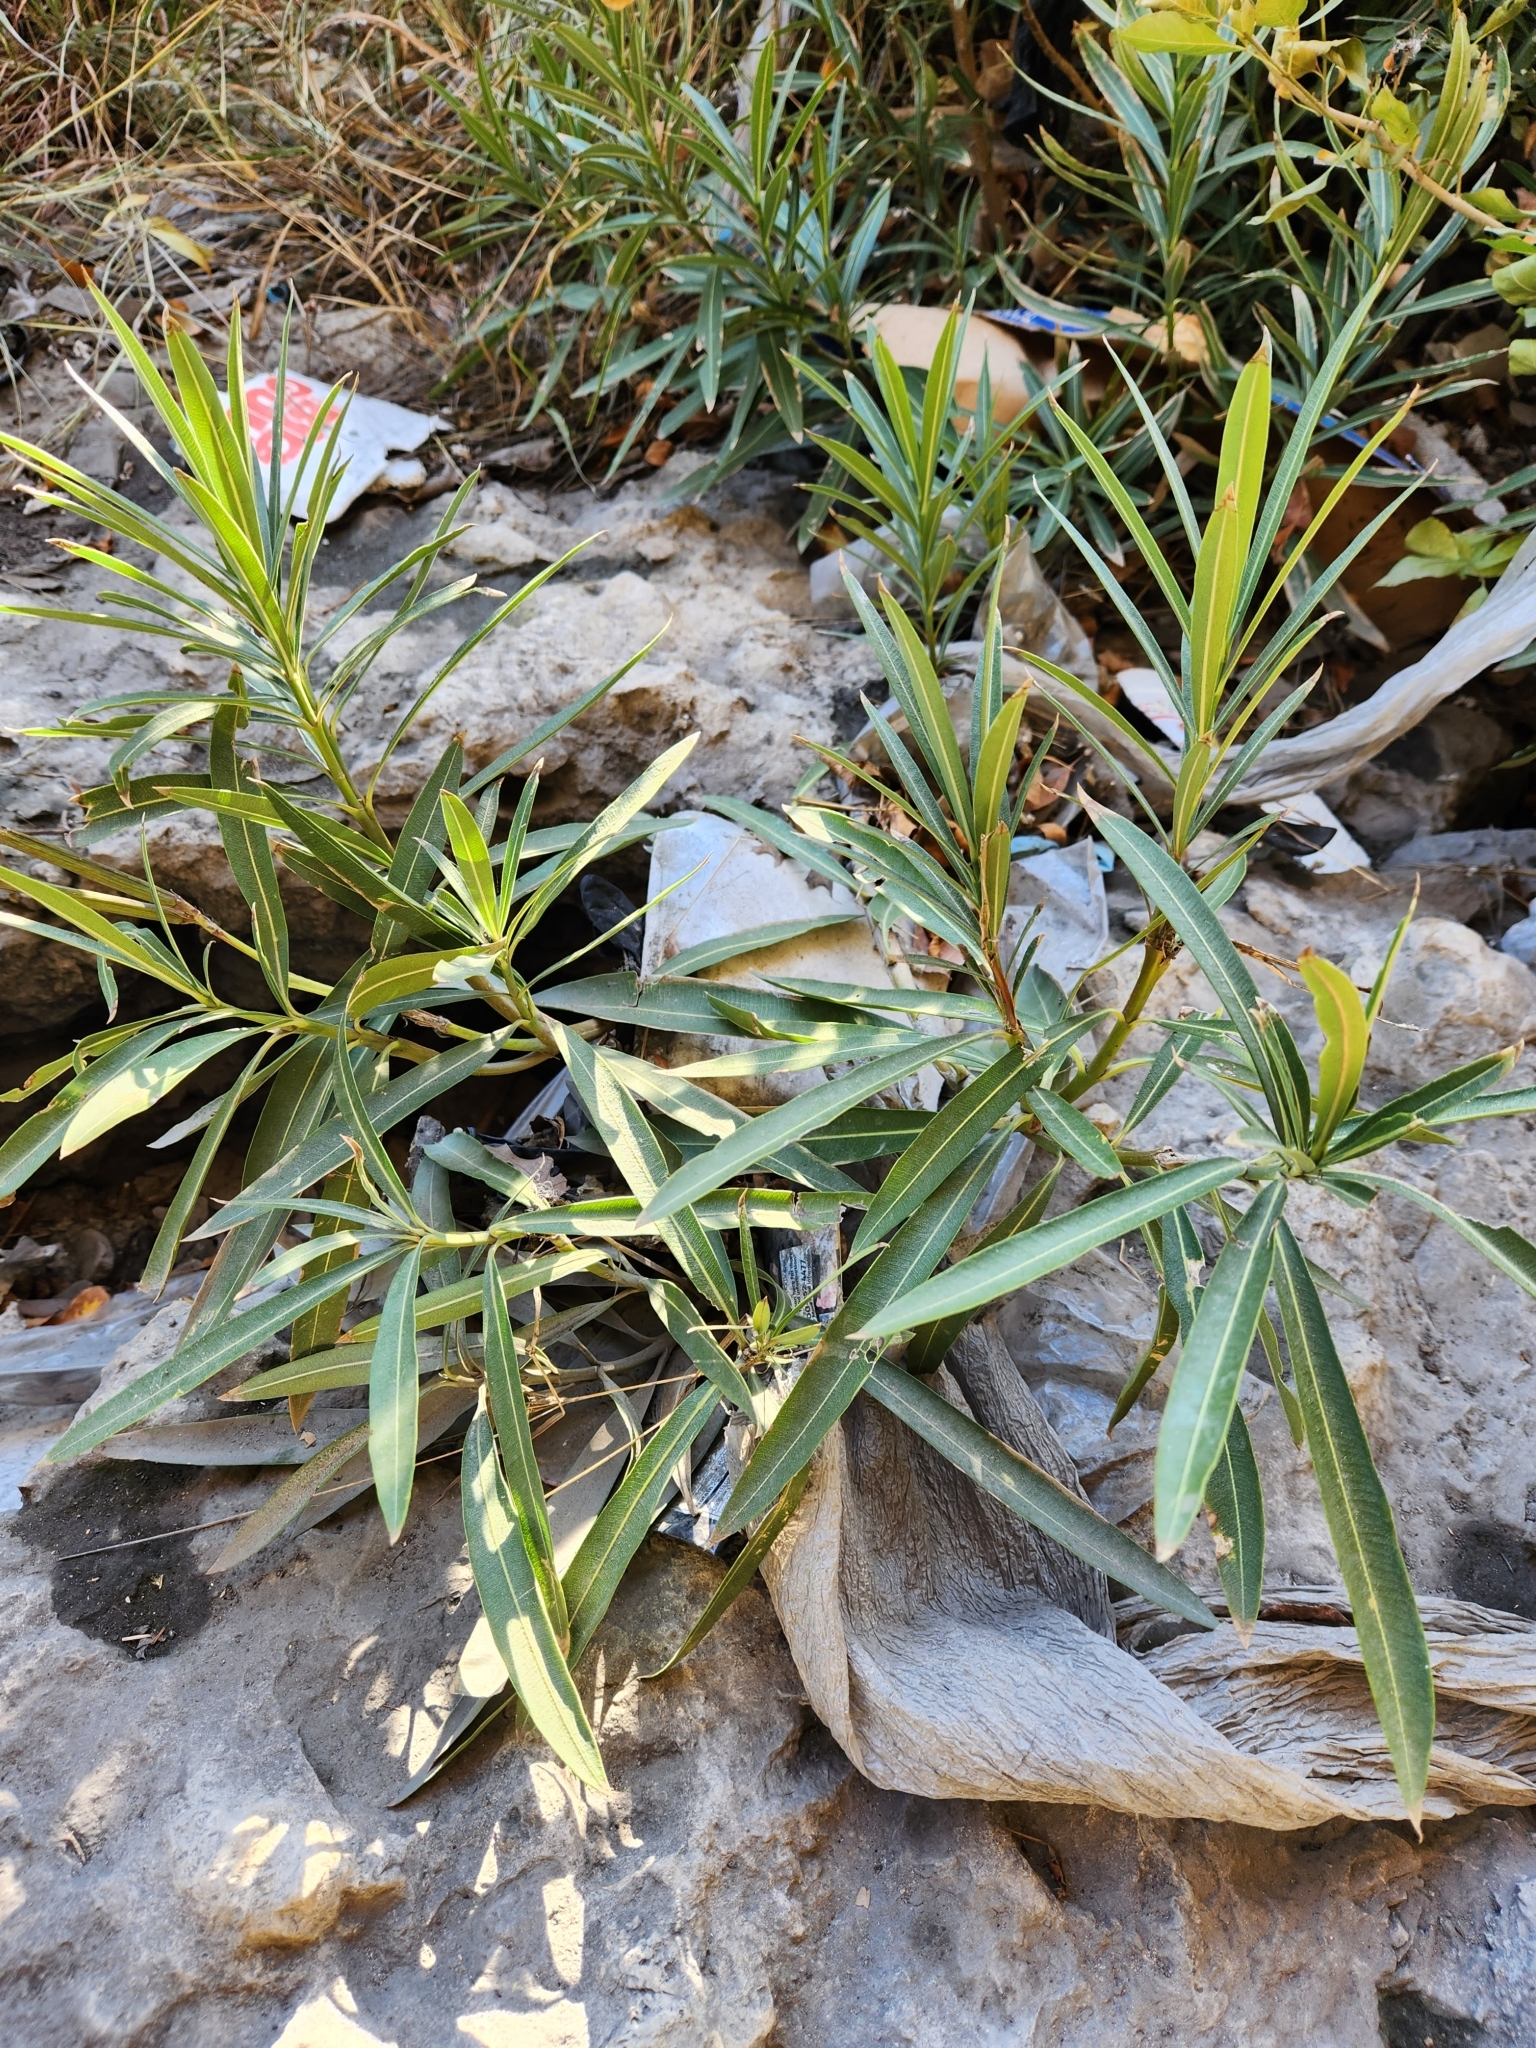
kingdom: Plantae
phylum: Tracheophyta
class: Magnoliopsida
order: Gentianales
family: Apocynaceae
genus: Nerium
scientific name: Nerium oleander
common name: Oleander
